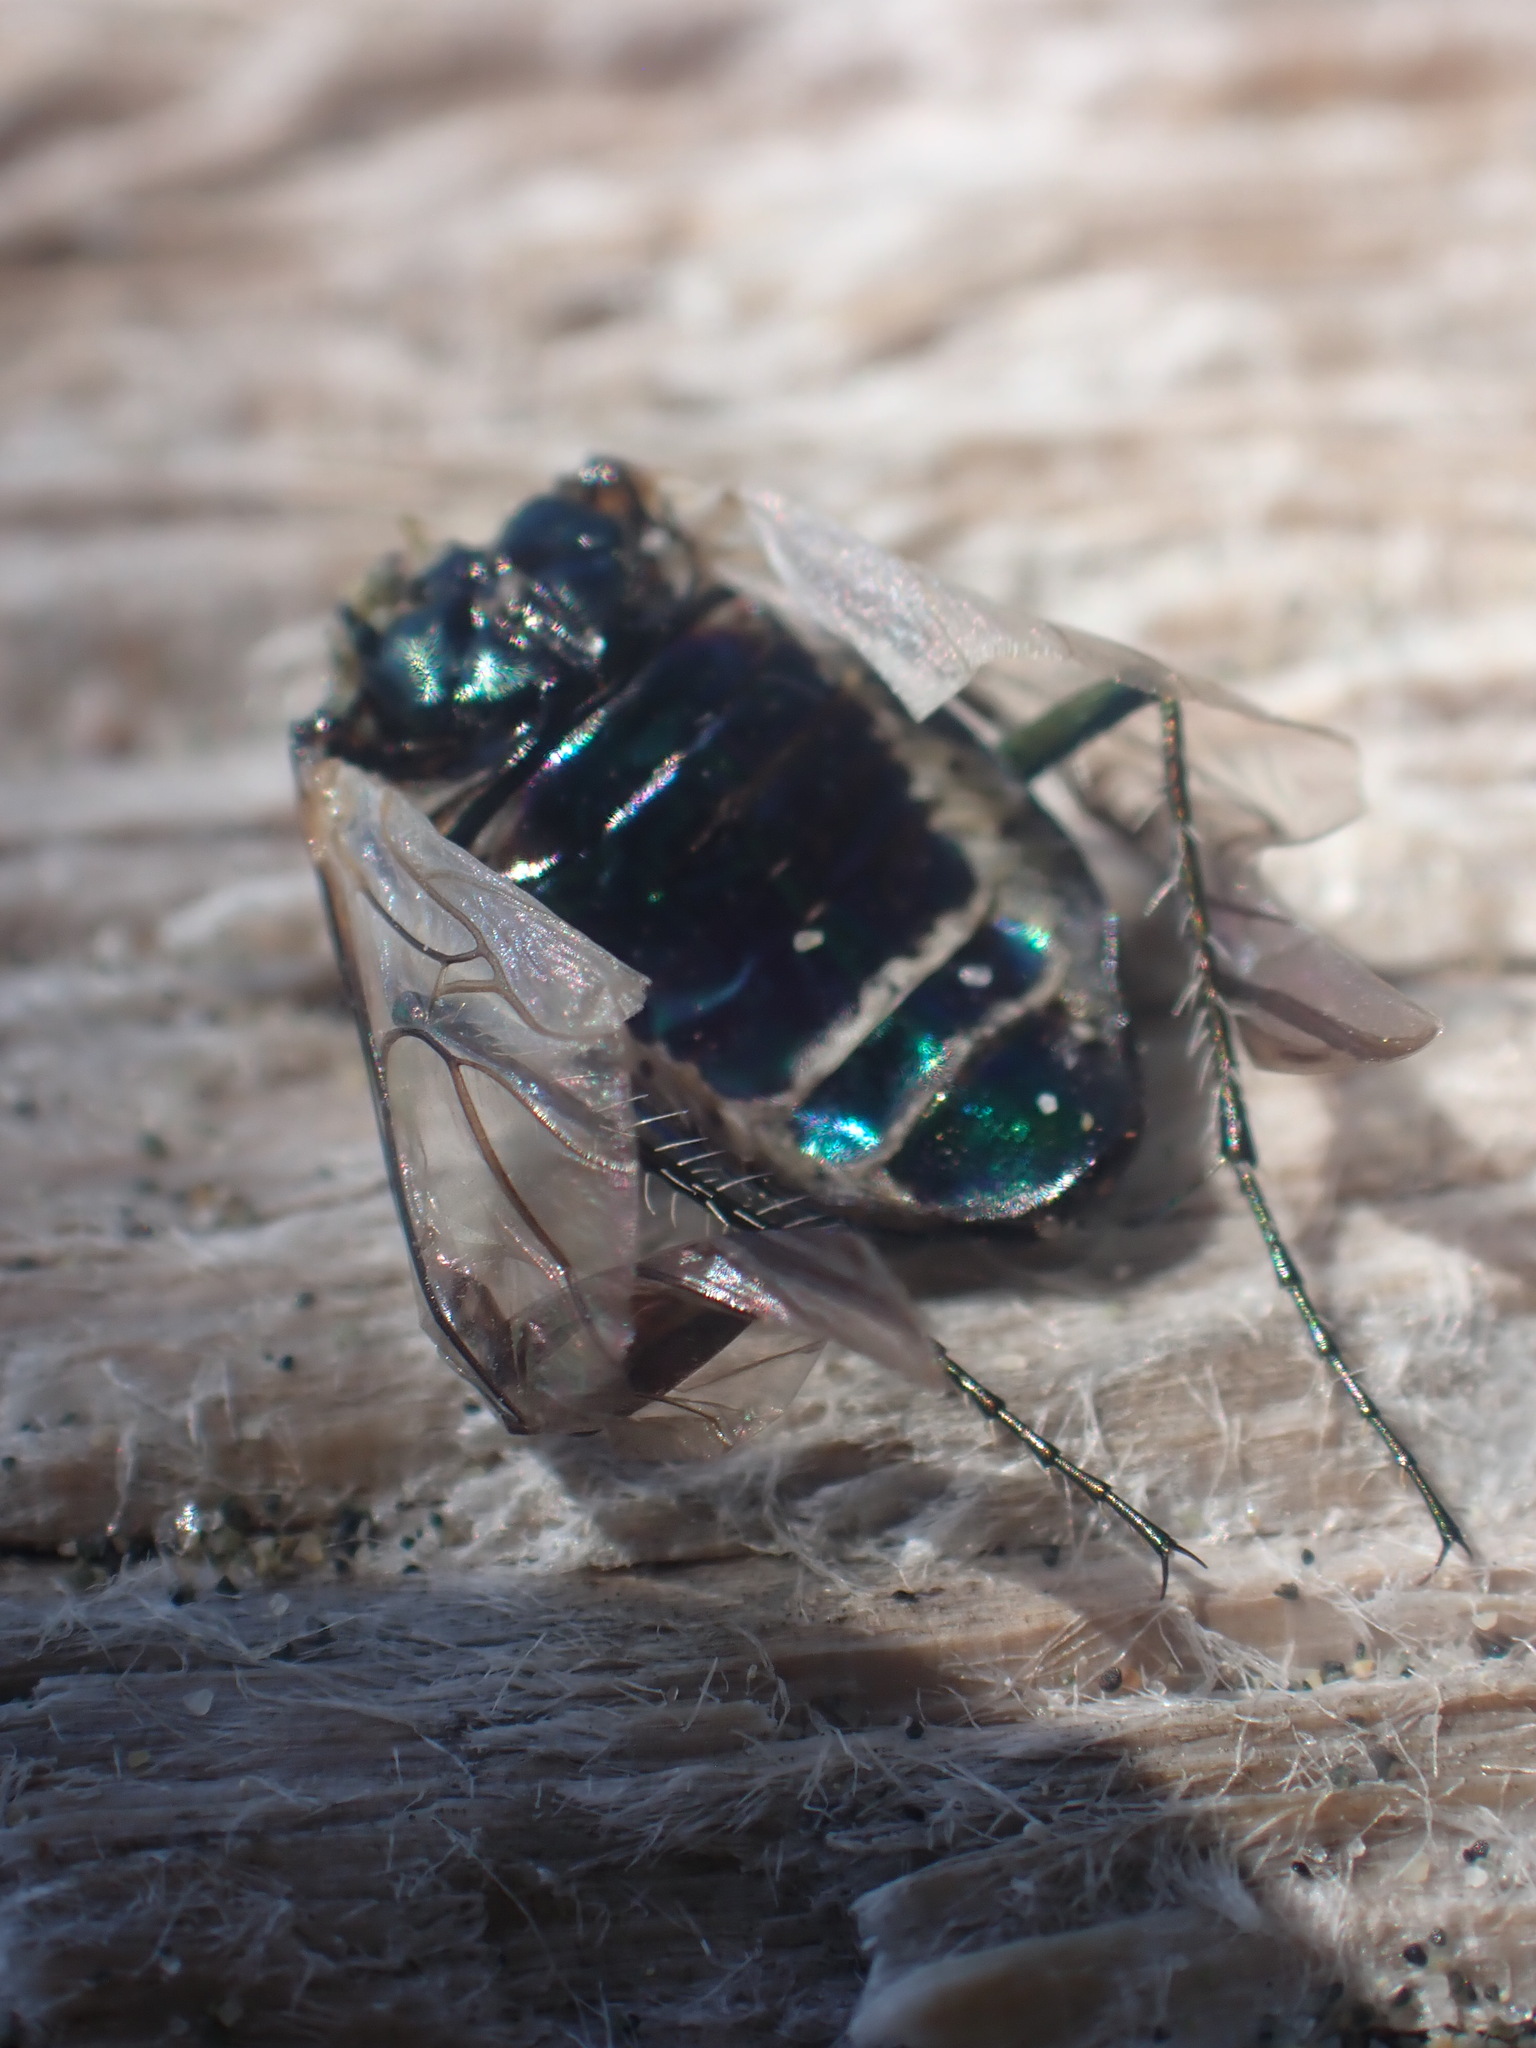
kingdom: Animalia
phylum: Arthropoda
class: Insecta
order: Coleoptera
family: Carabidae
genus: Cicindela
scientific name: Cicindela oregona
